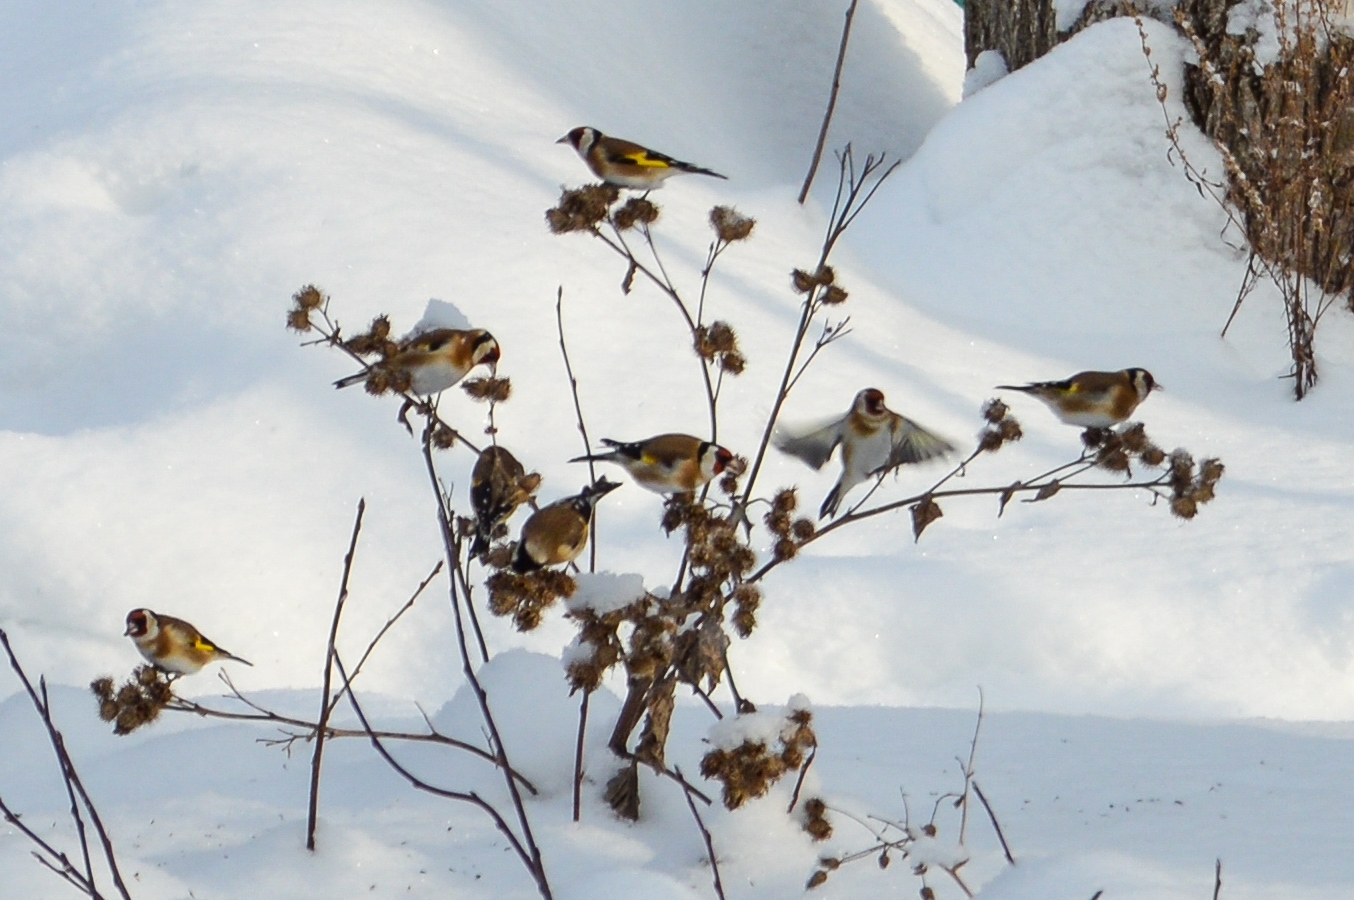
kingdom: Animalia
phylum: Chordata
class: Aves
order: Passeriformes
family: Fringillidae
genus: Carduelis
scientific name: Carduelis carduelis
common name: European goldfinch
